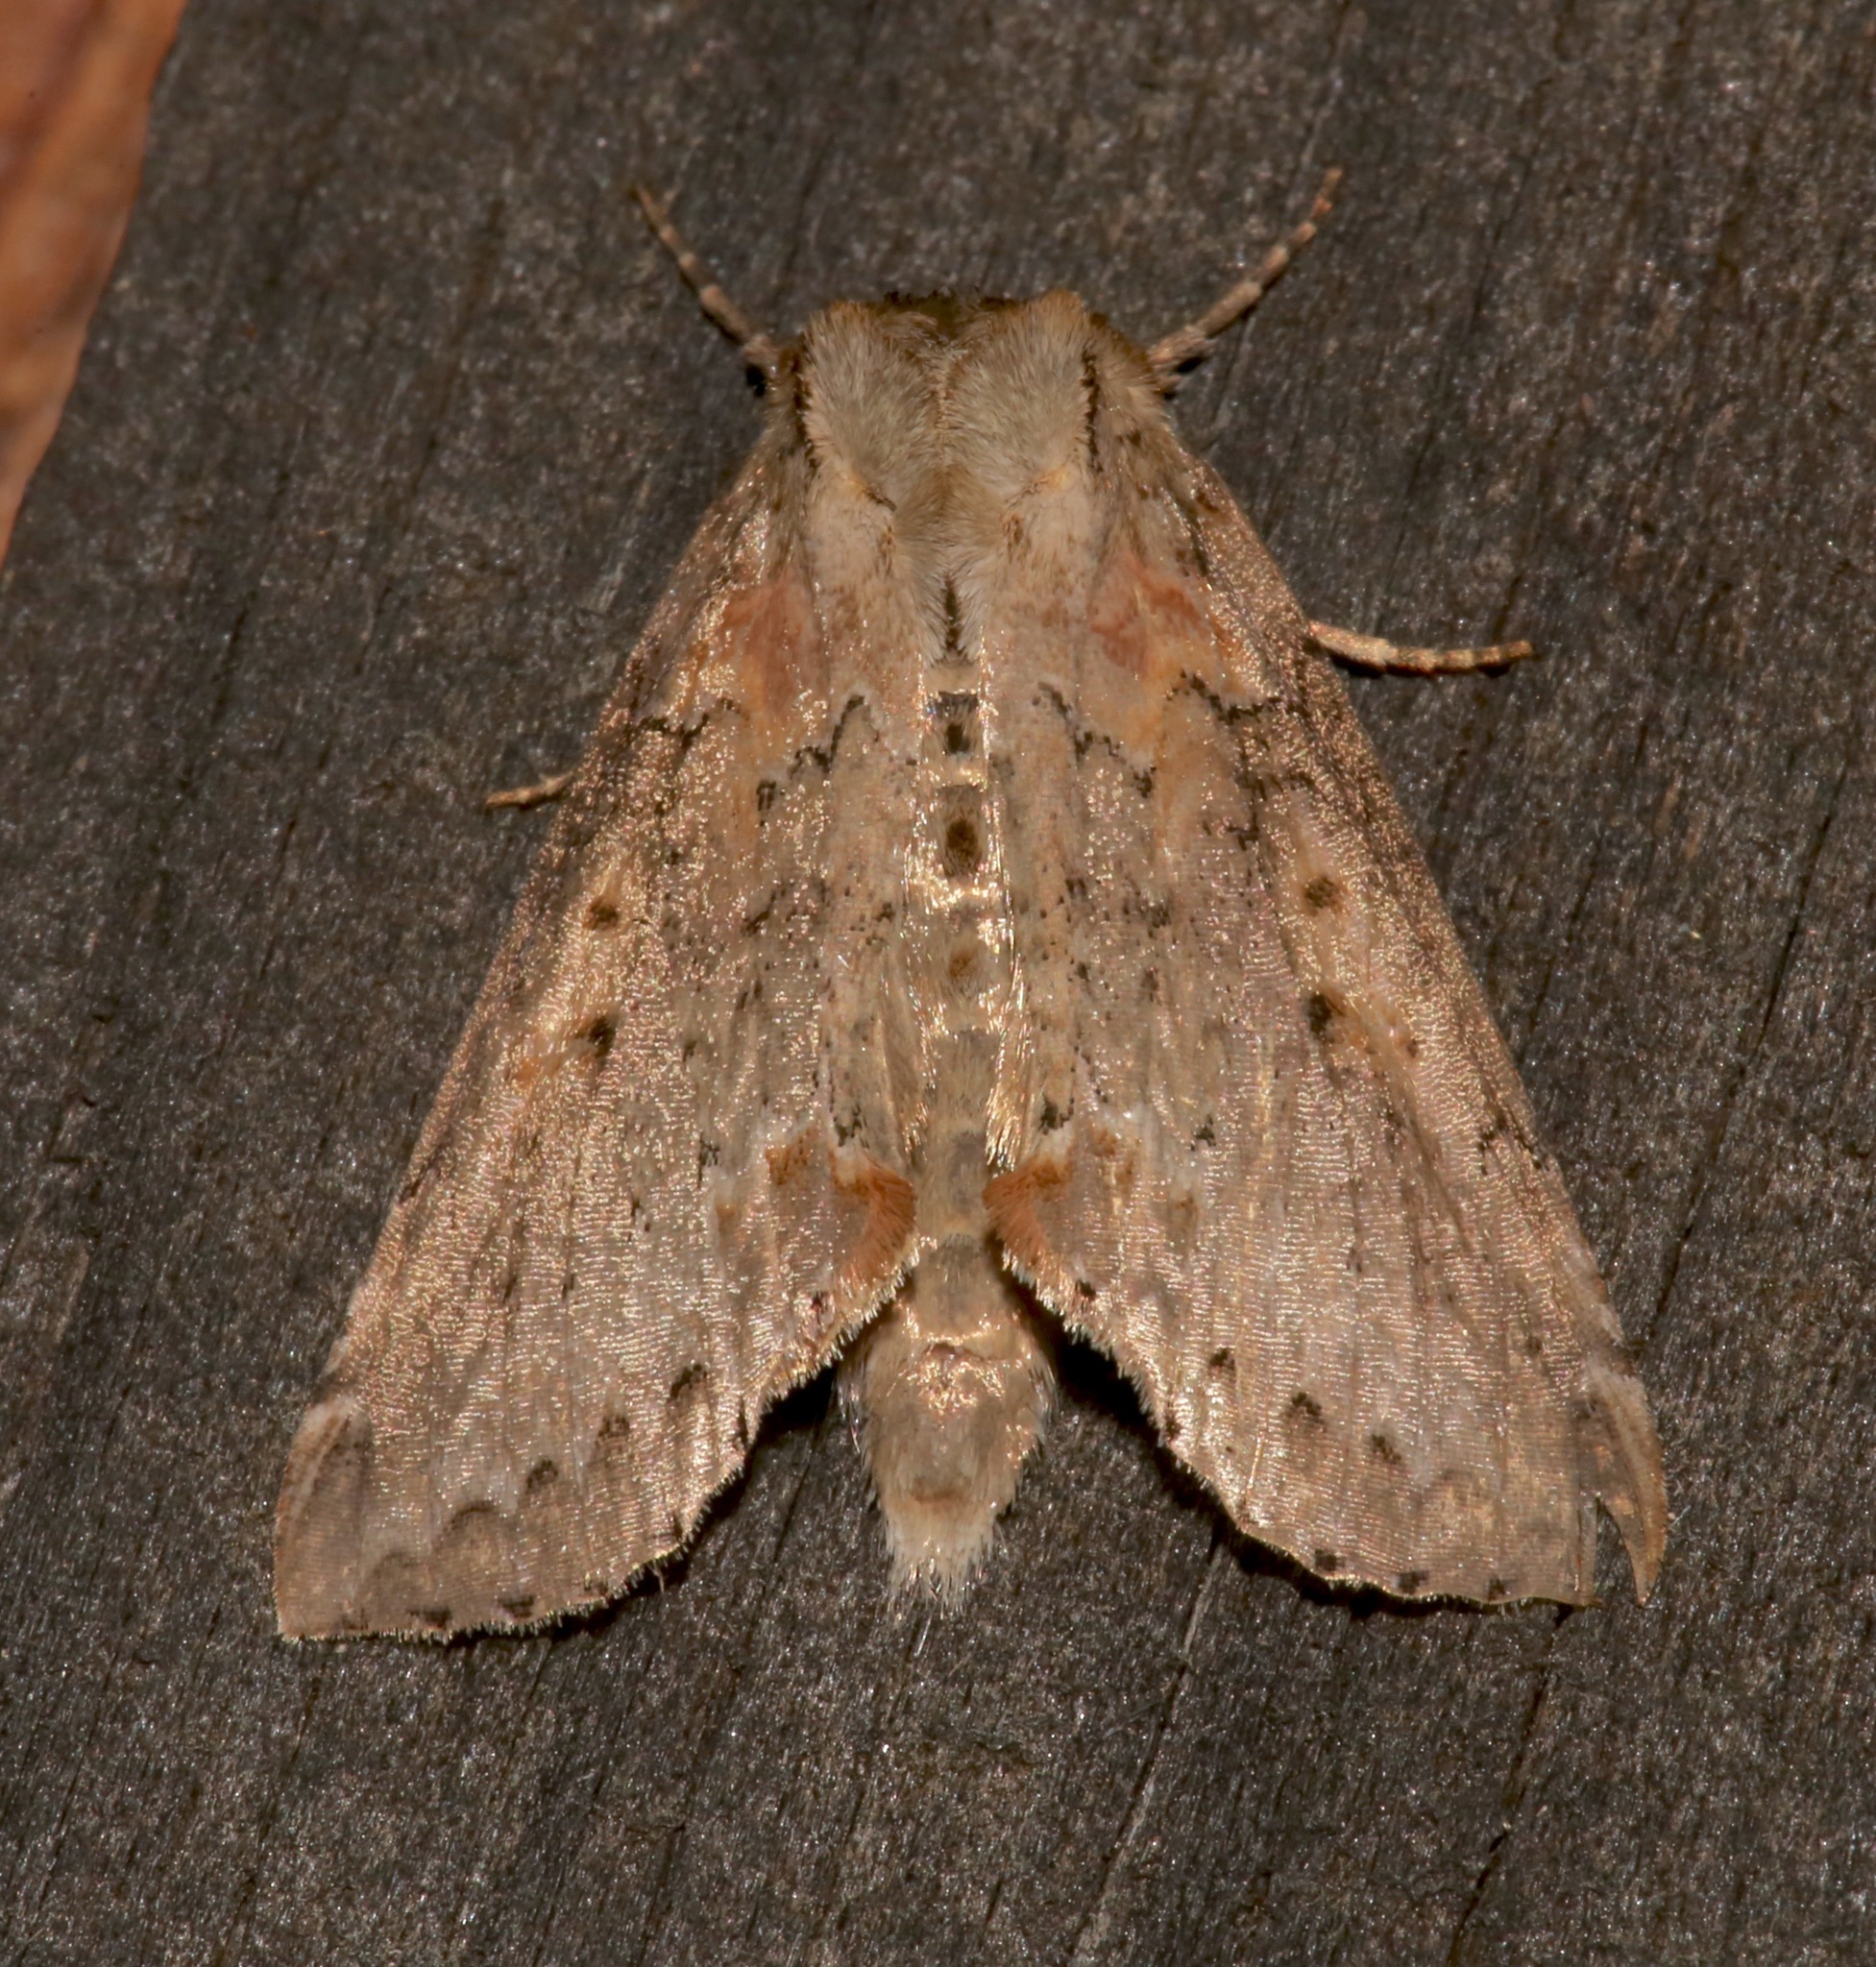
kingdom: Animalia
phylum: Arthropoda
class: Insecta
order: Lepidoptera
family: Drepanidae
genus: Pseudothyatira
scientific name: Pseudothyatira cymatophoroides
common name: Tufted thyatirid moth
